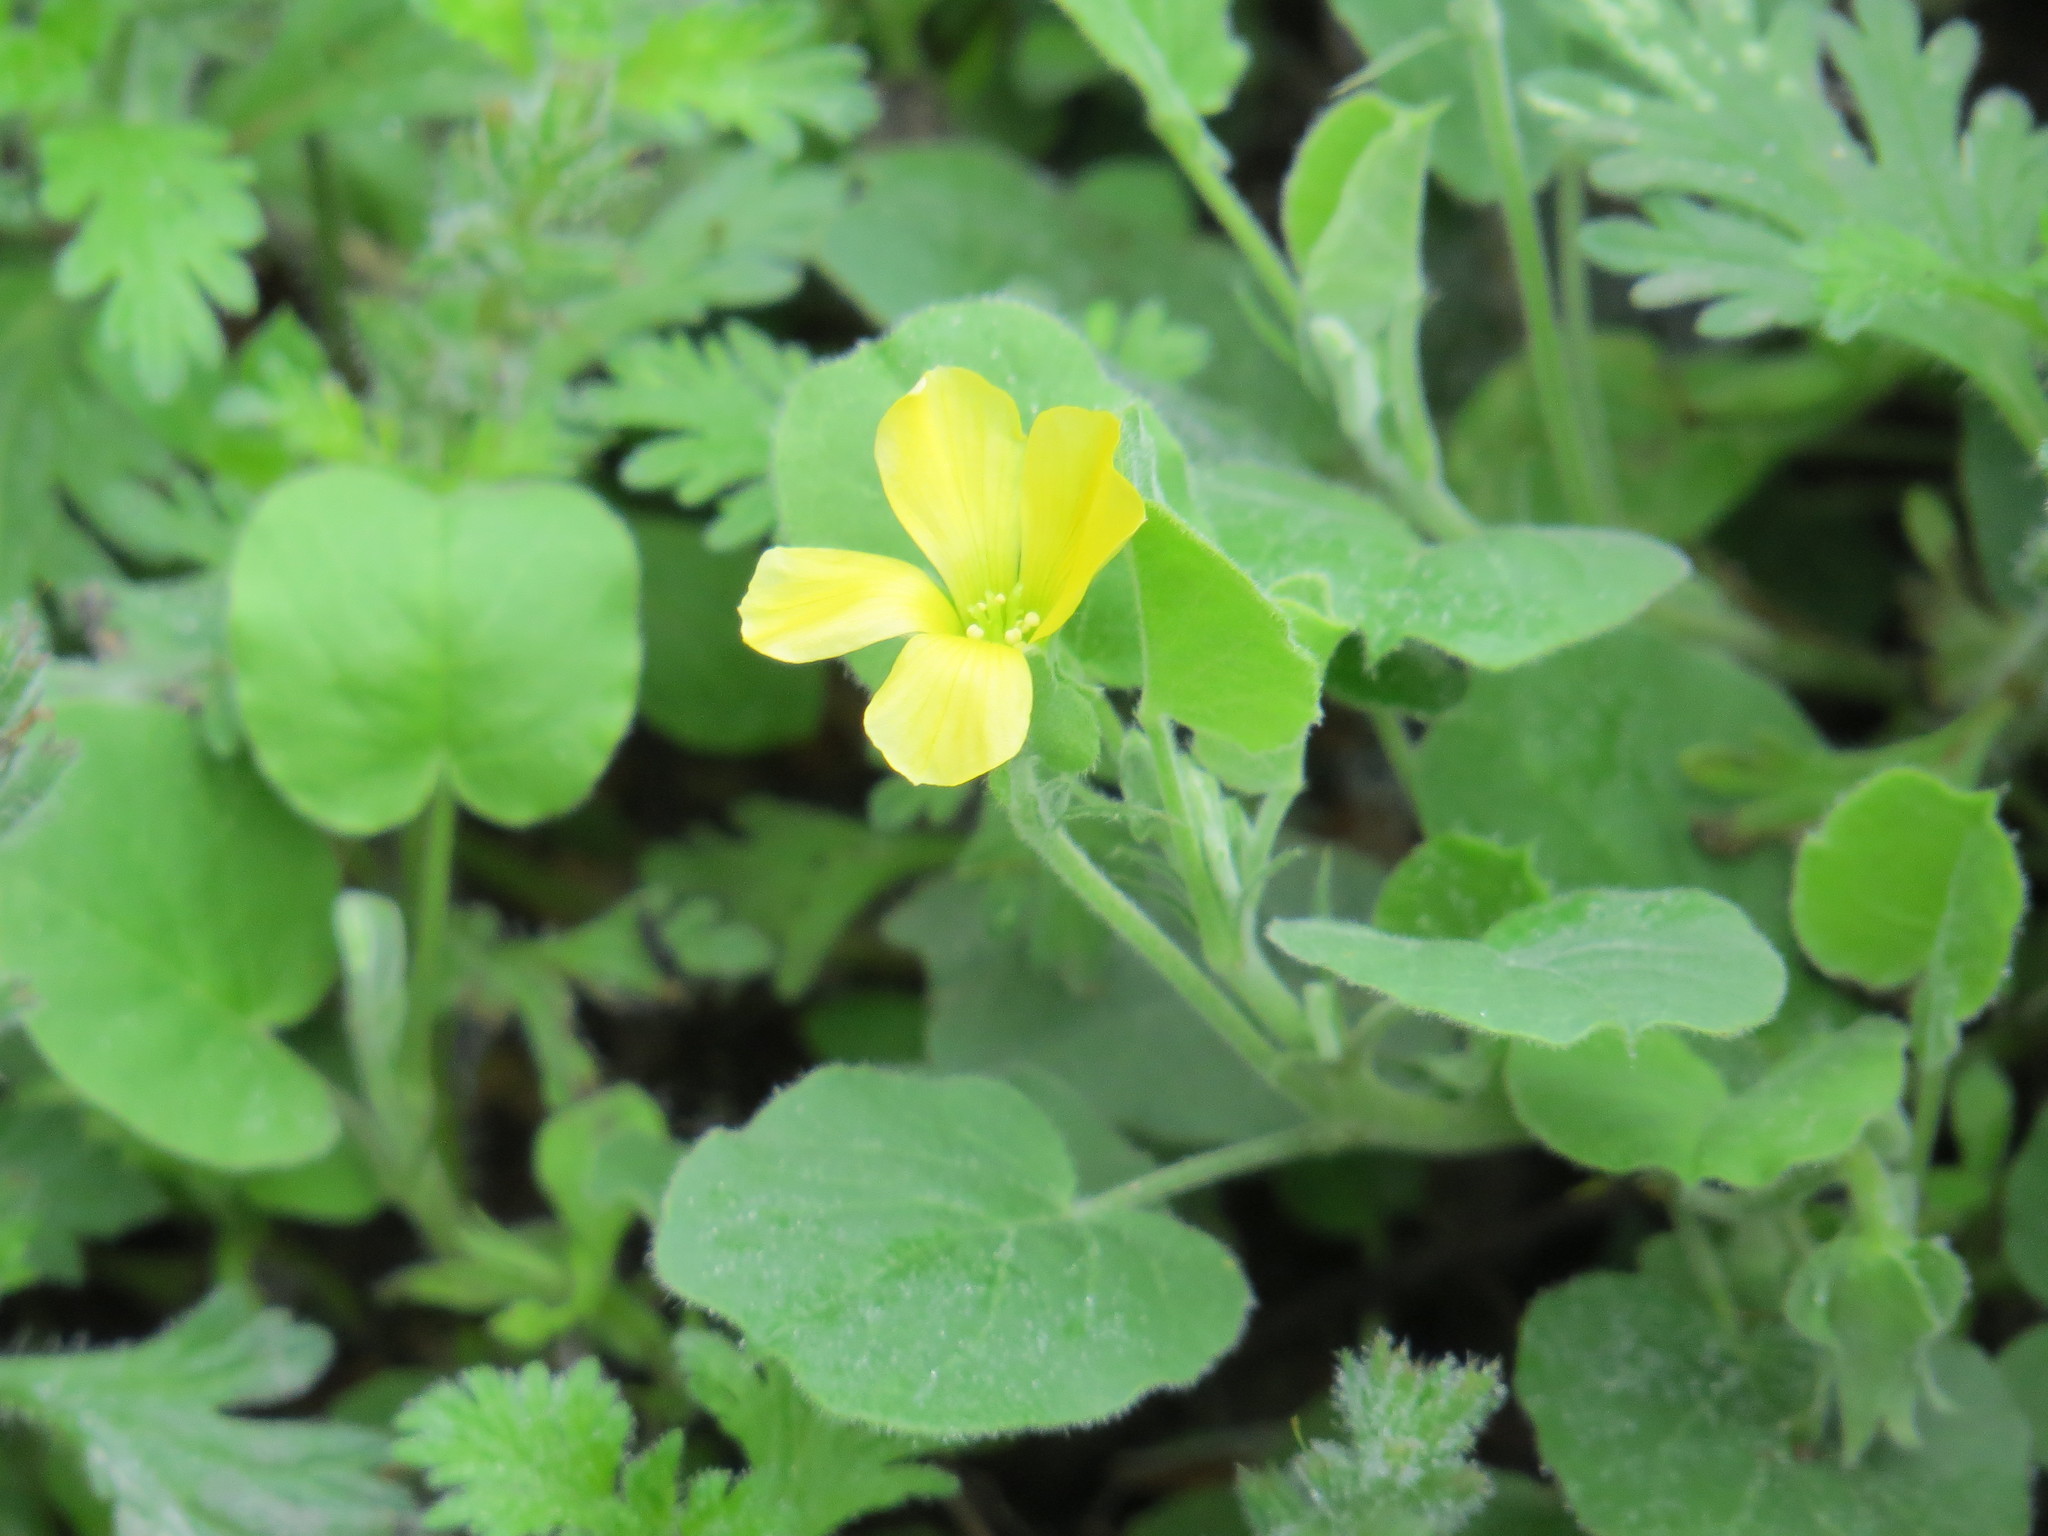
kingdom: Plantae
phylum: Tracheophyta
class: Magnoliopsida
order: Oxalidales
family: Oxalidaceae
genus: Oxalis
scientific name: Oxalis dichondrifolia
